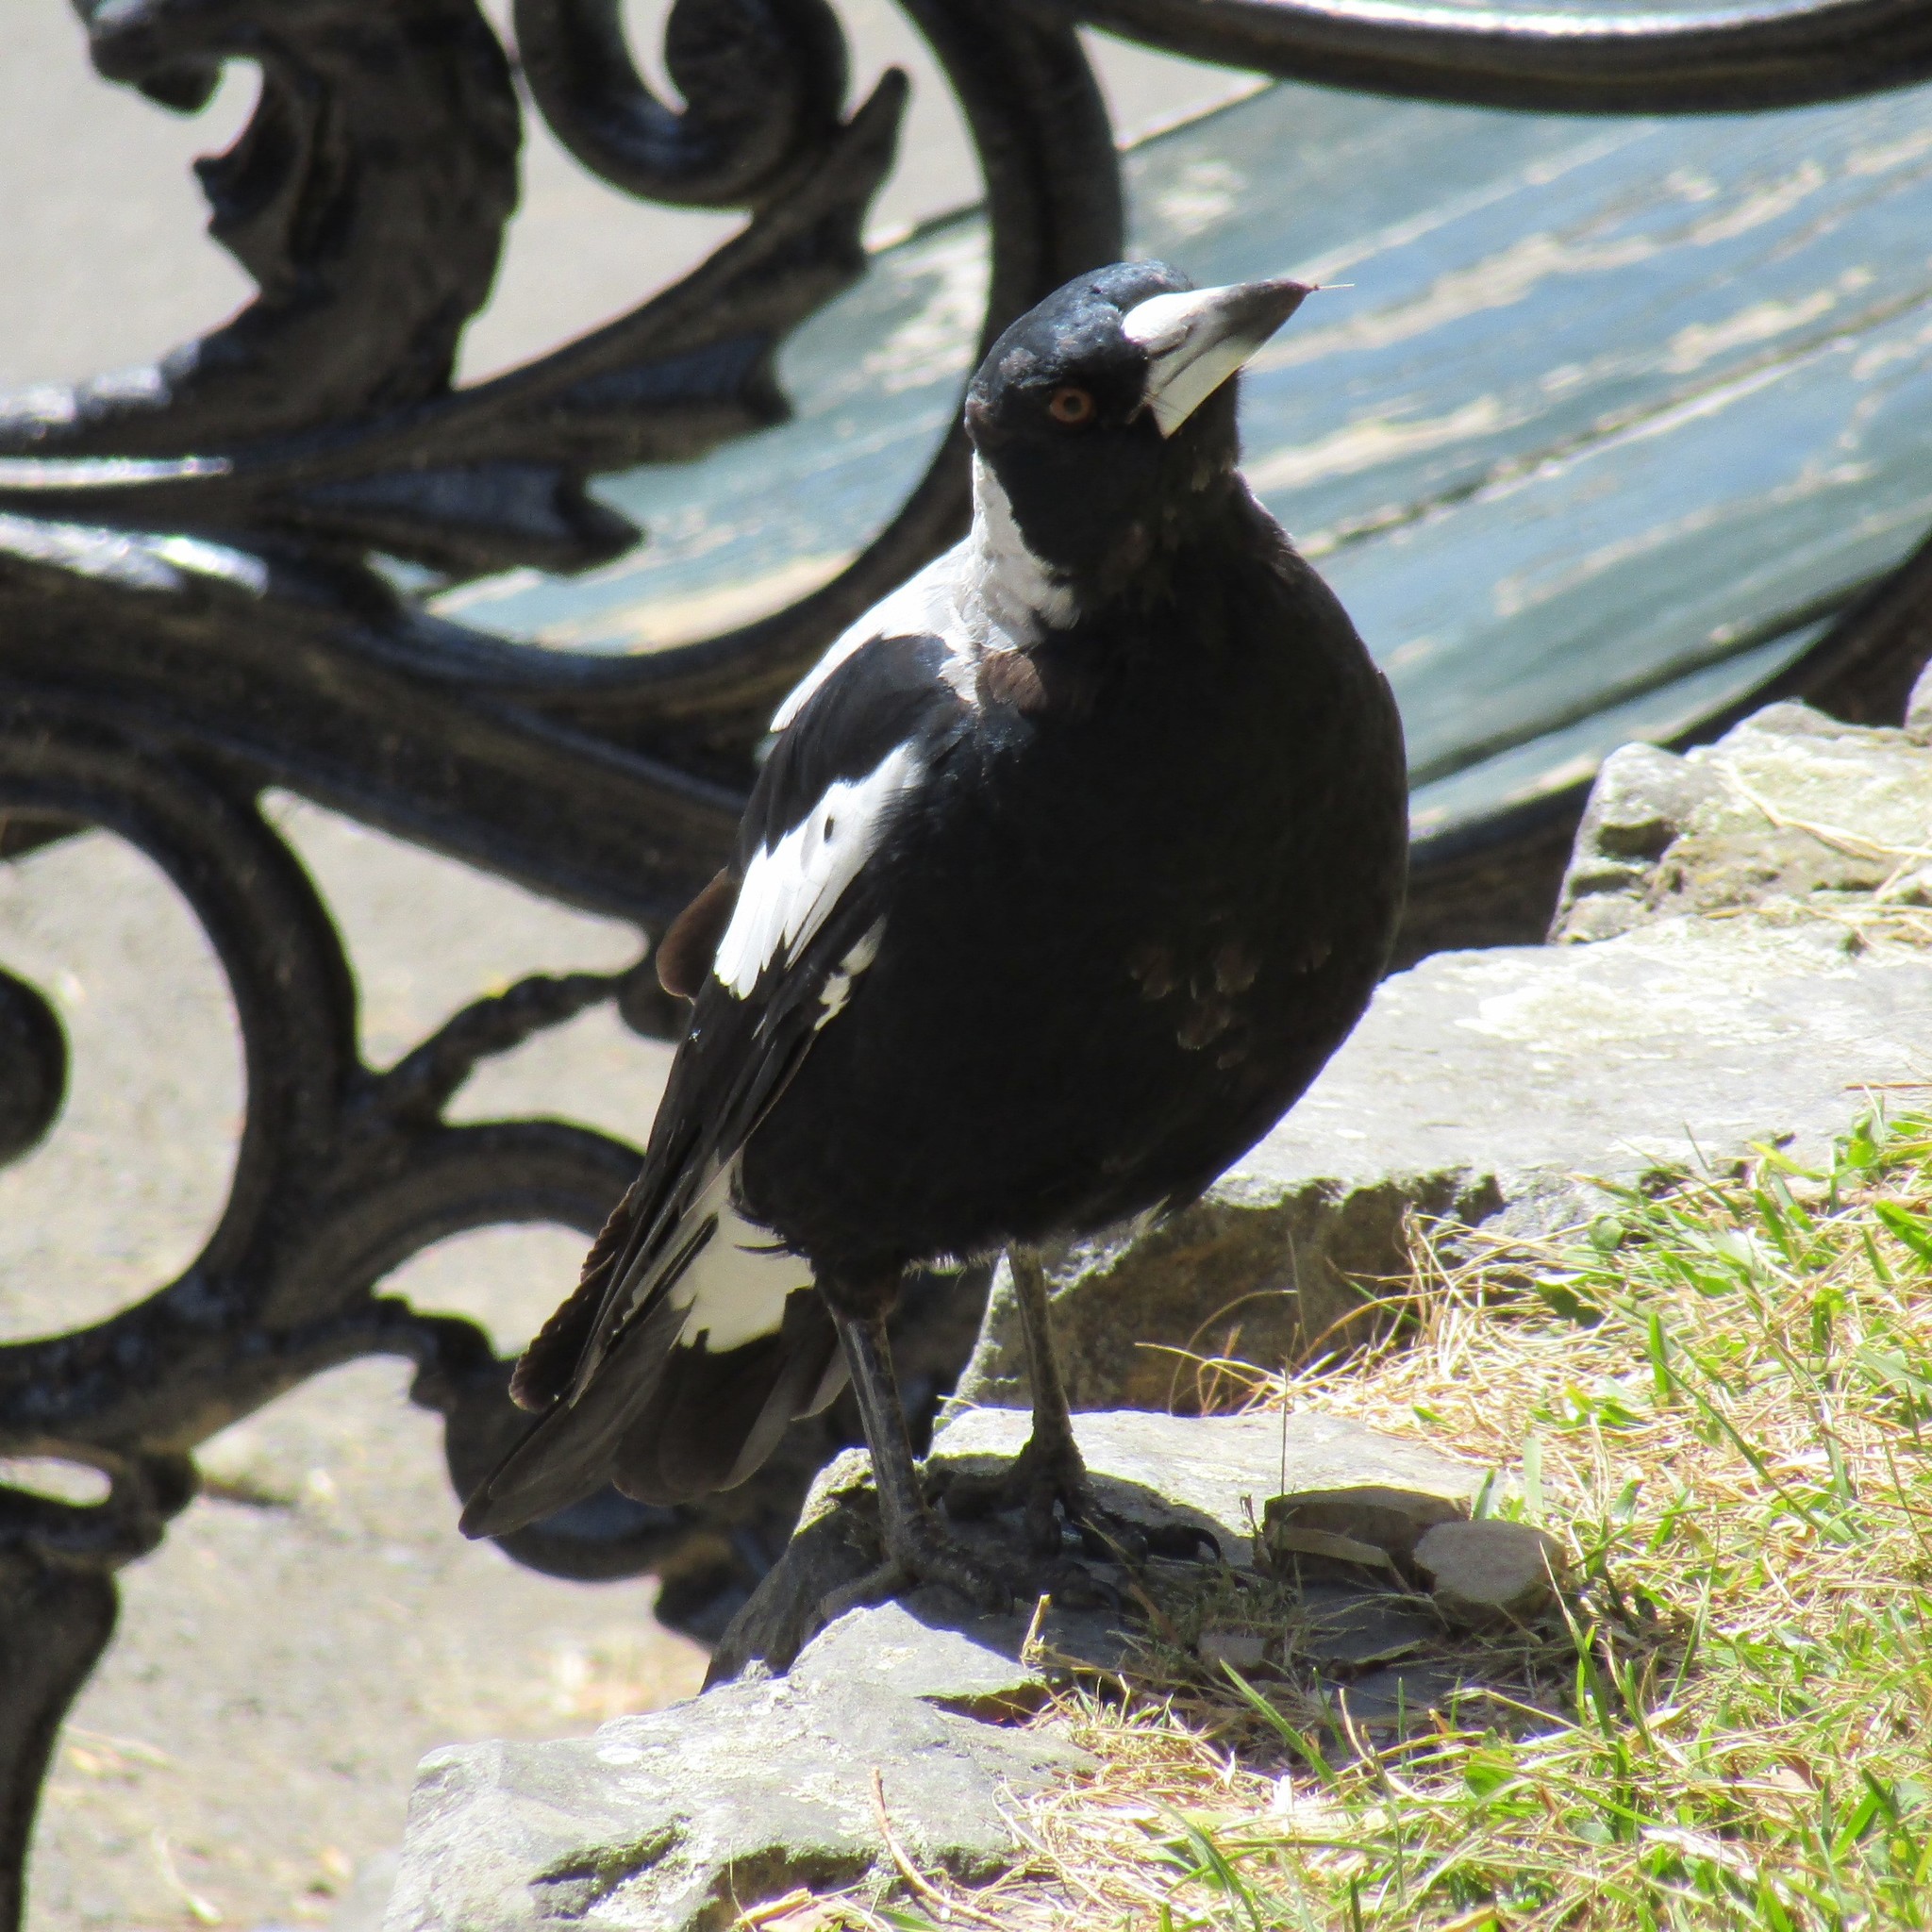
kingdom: Animalia
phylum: Chordata
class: Aves
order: Passeriformes
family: Cracticidae
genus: Gymnorhina
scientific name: Gymnorhina tibicen
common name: Australian magpie
